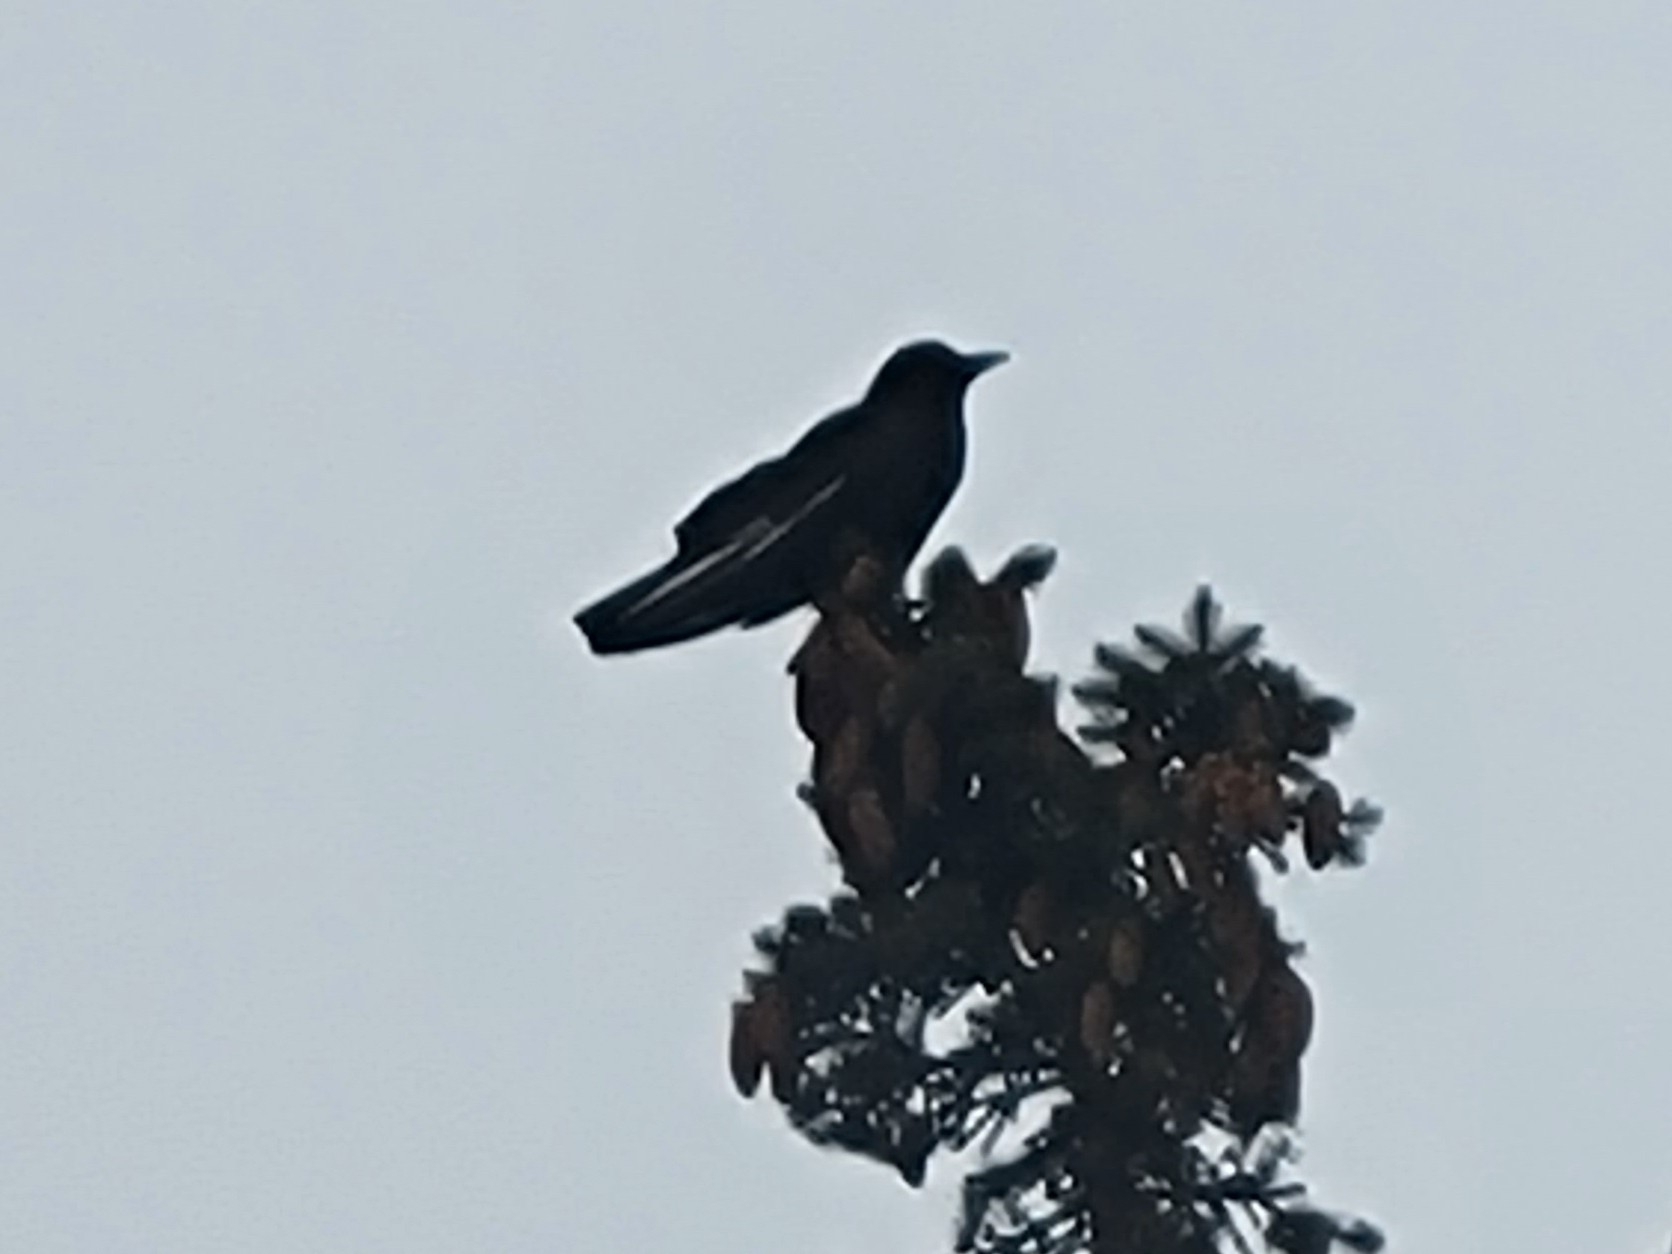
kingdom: Animalia
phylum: Chordata
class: Aves
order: Passeriformes
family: Corvidae
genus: Corvus
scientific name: Corvus brachyrhynchos
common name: American crow
